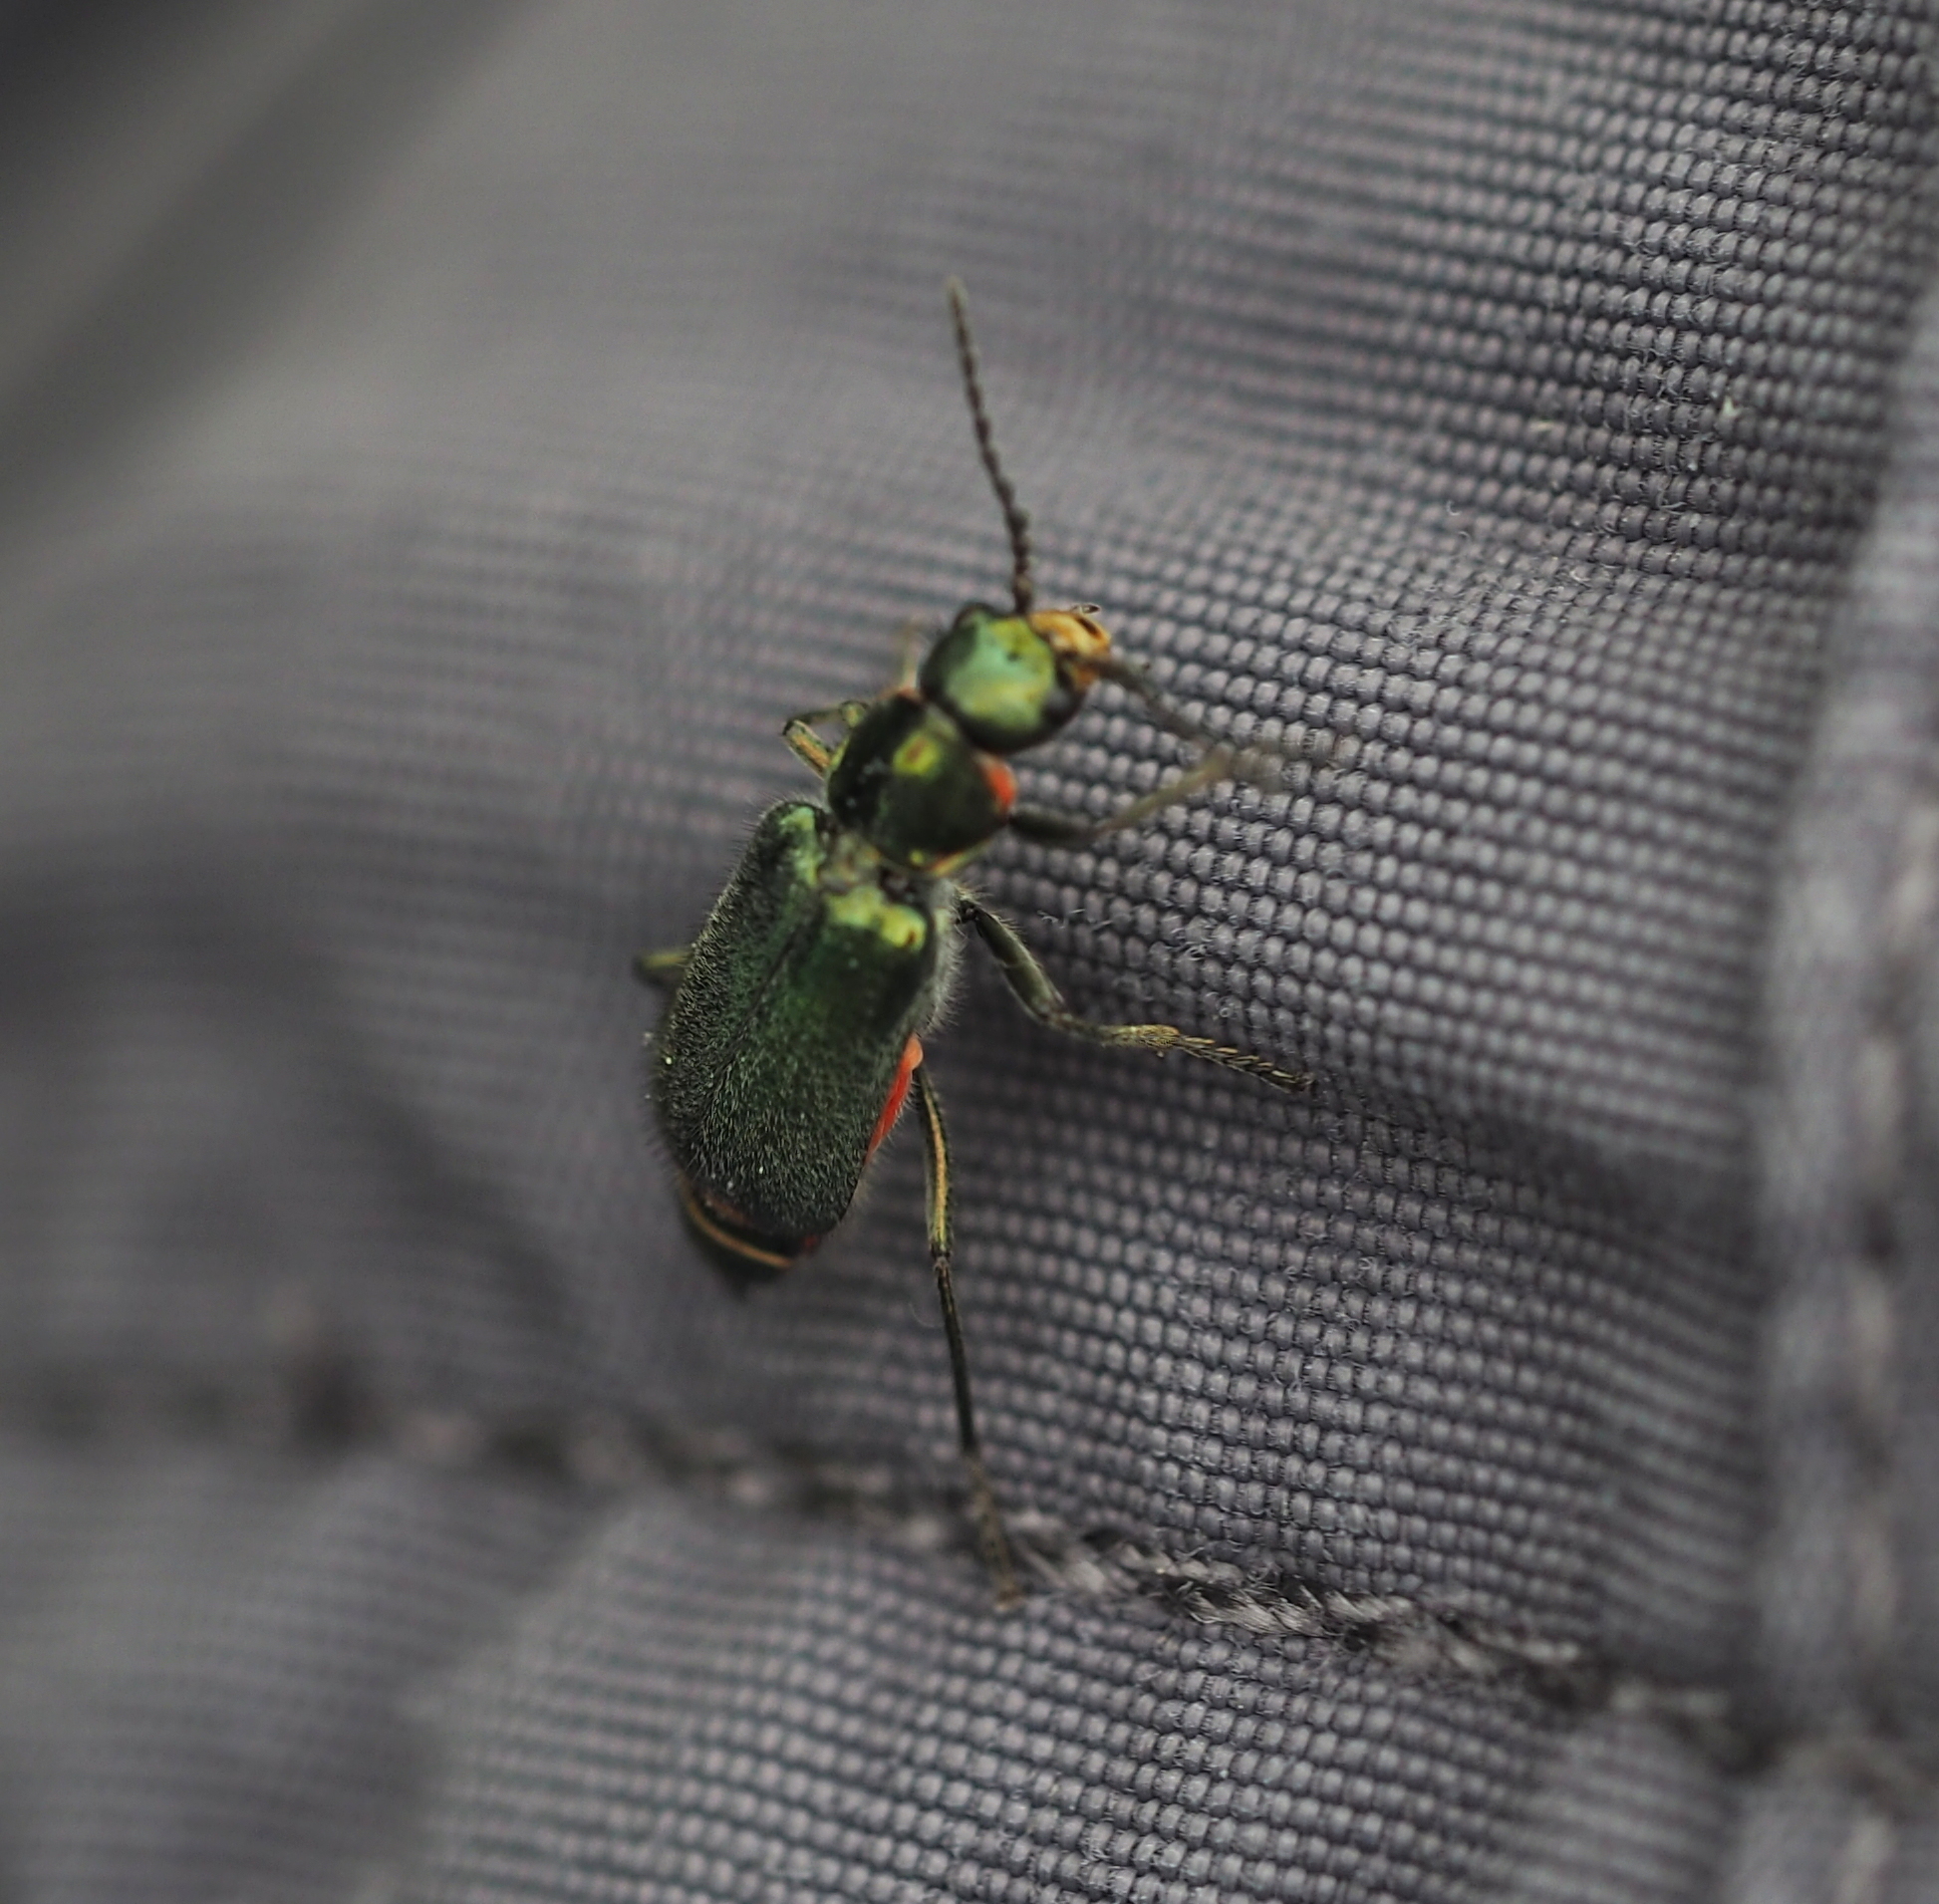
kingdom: Animalia
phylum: Arthropoda
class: Insecta
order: Coleoptera
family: Melyridae
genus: Malachius
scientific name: Malachius bipustulatus
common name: Malachite beetle
